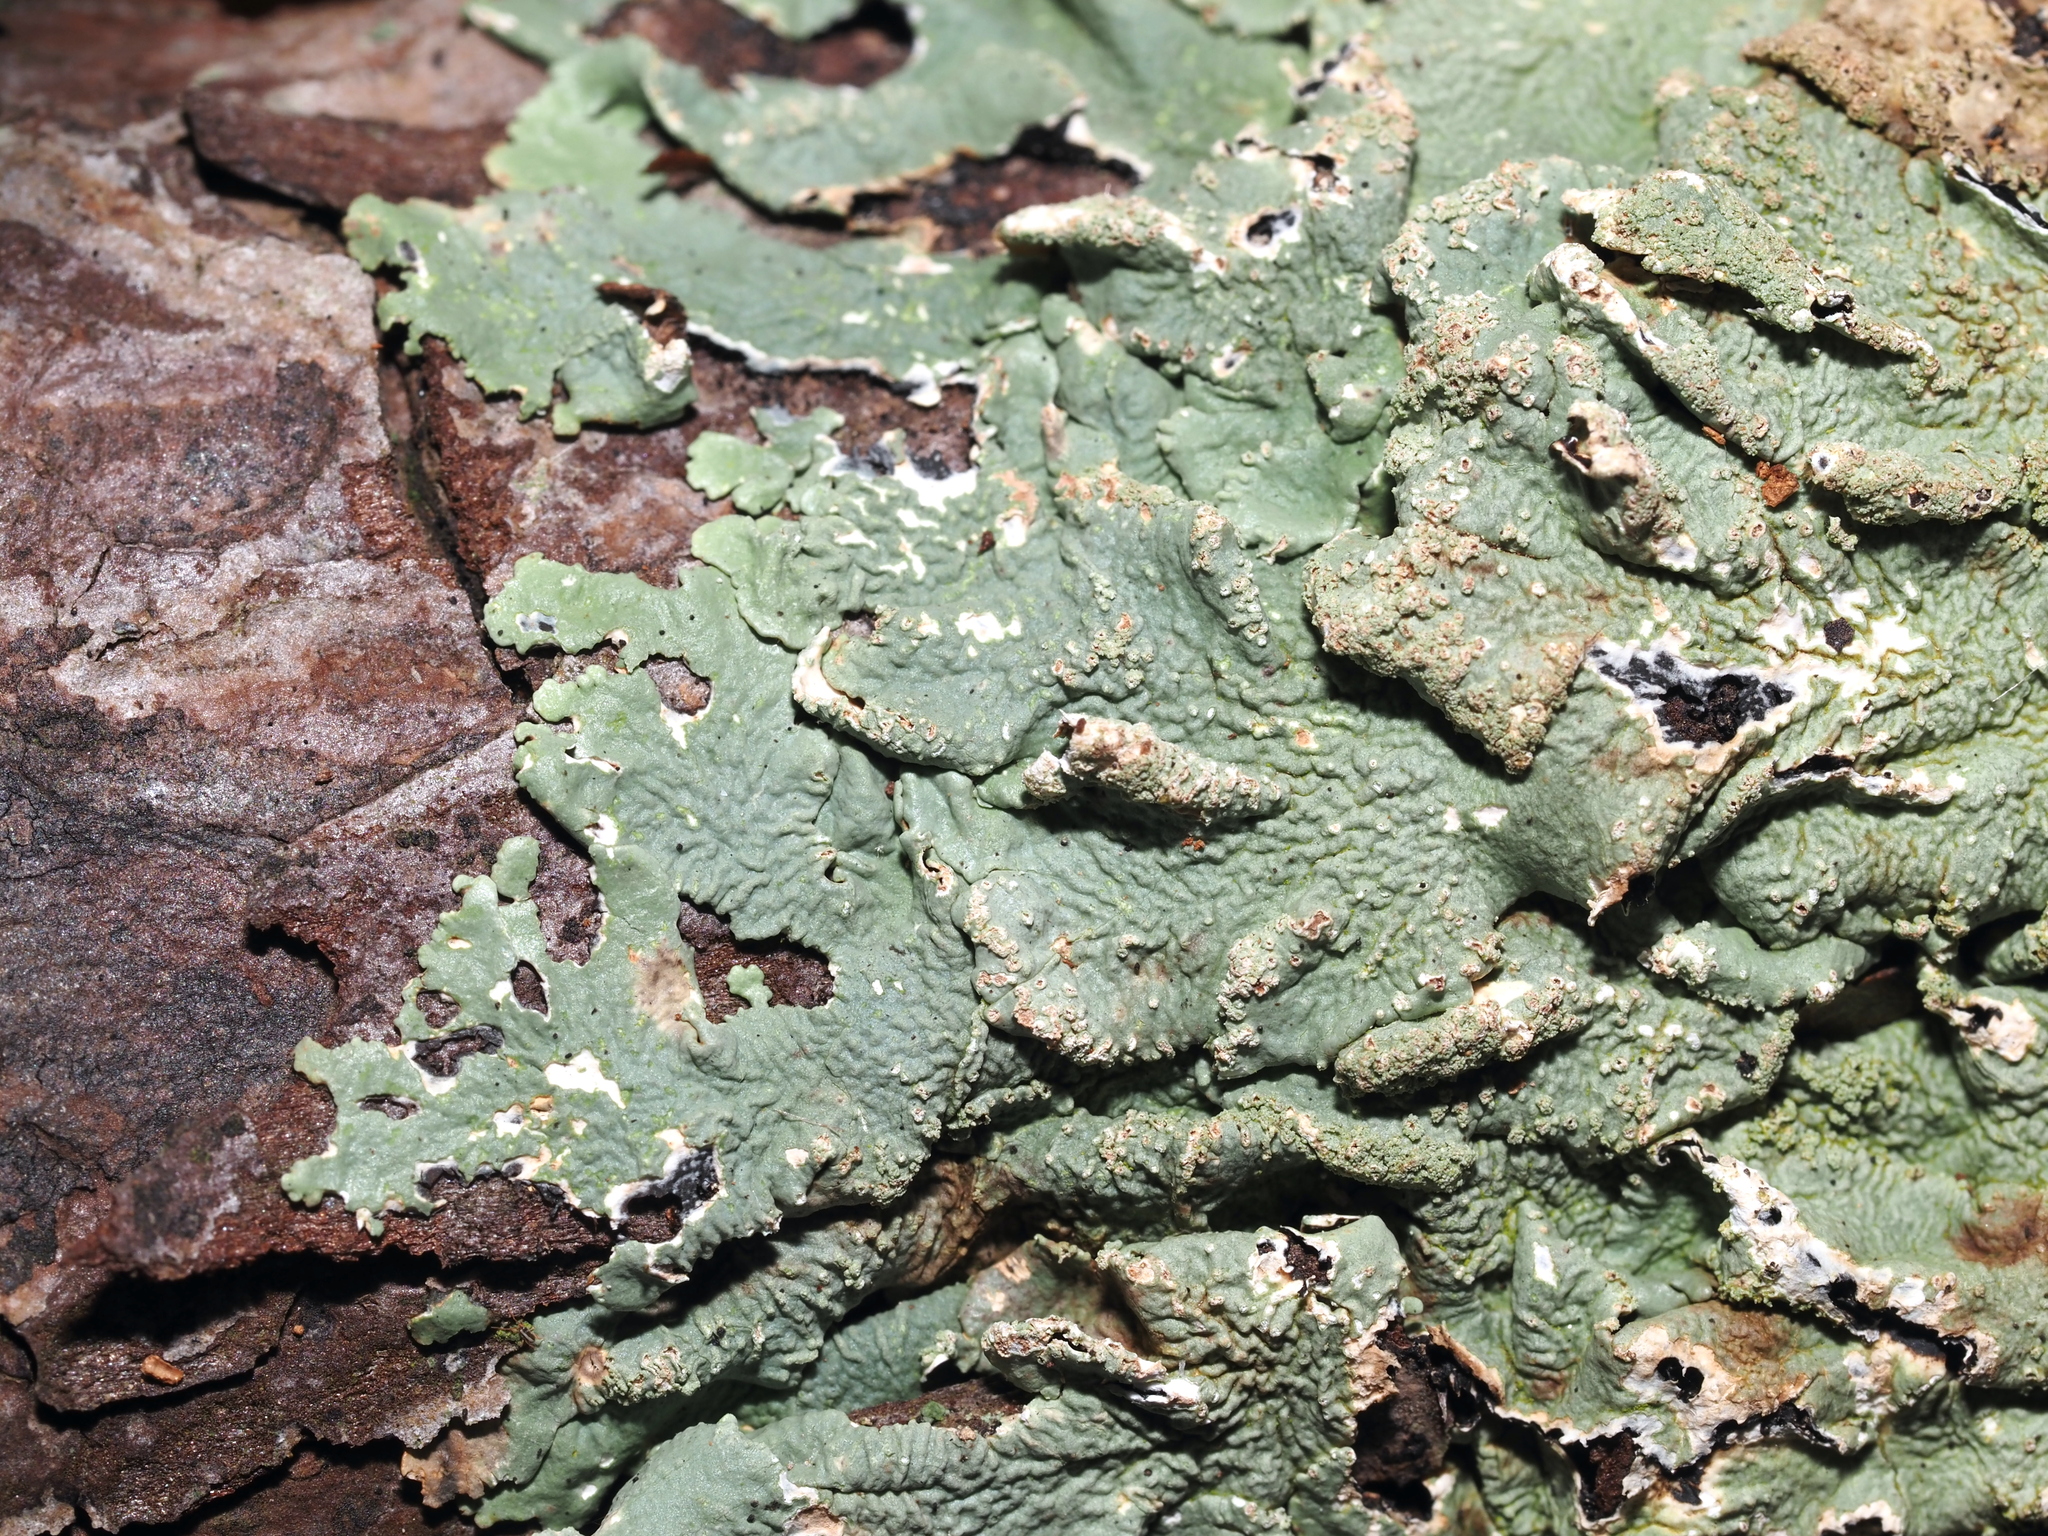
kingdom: Fungi
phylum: Ascomycota
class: Lecanoromycetes
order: Lecanorales
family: Parmeliaceae
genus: Flavoparmelia
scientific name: Flavoparmelia caperata
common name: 40-mile per hour lichen
